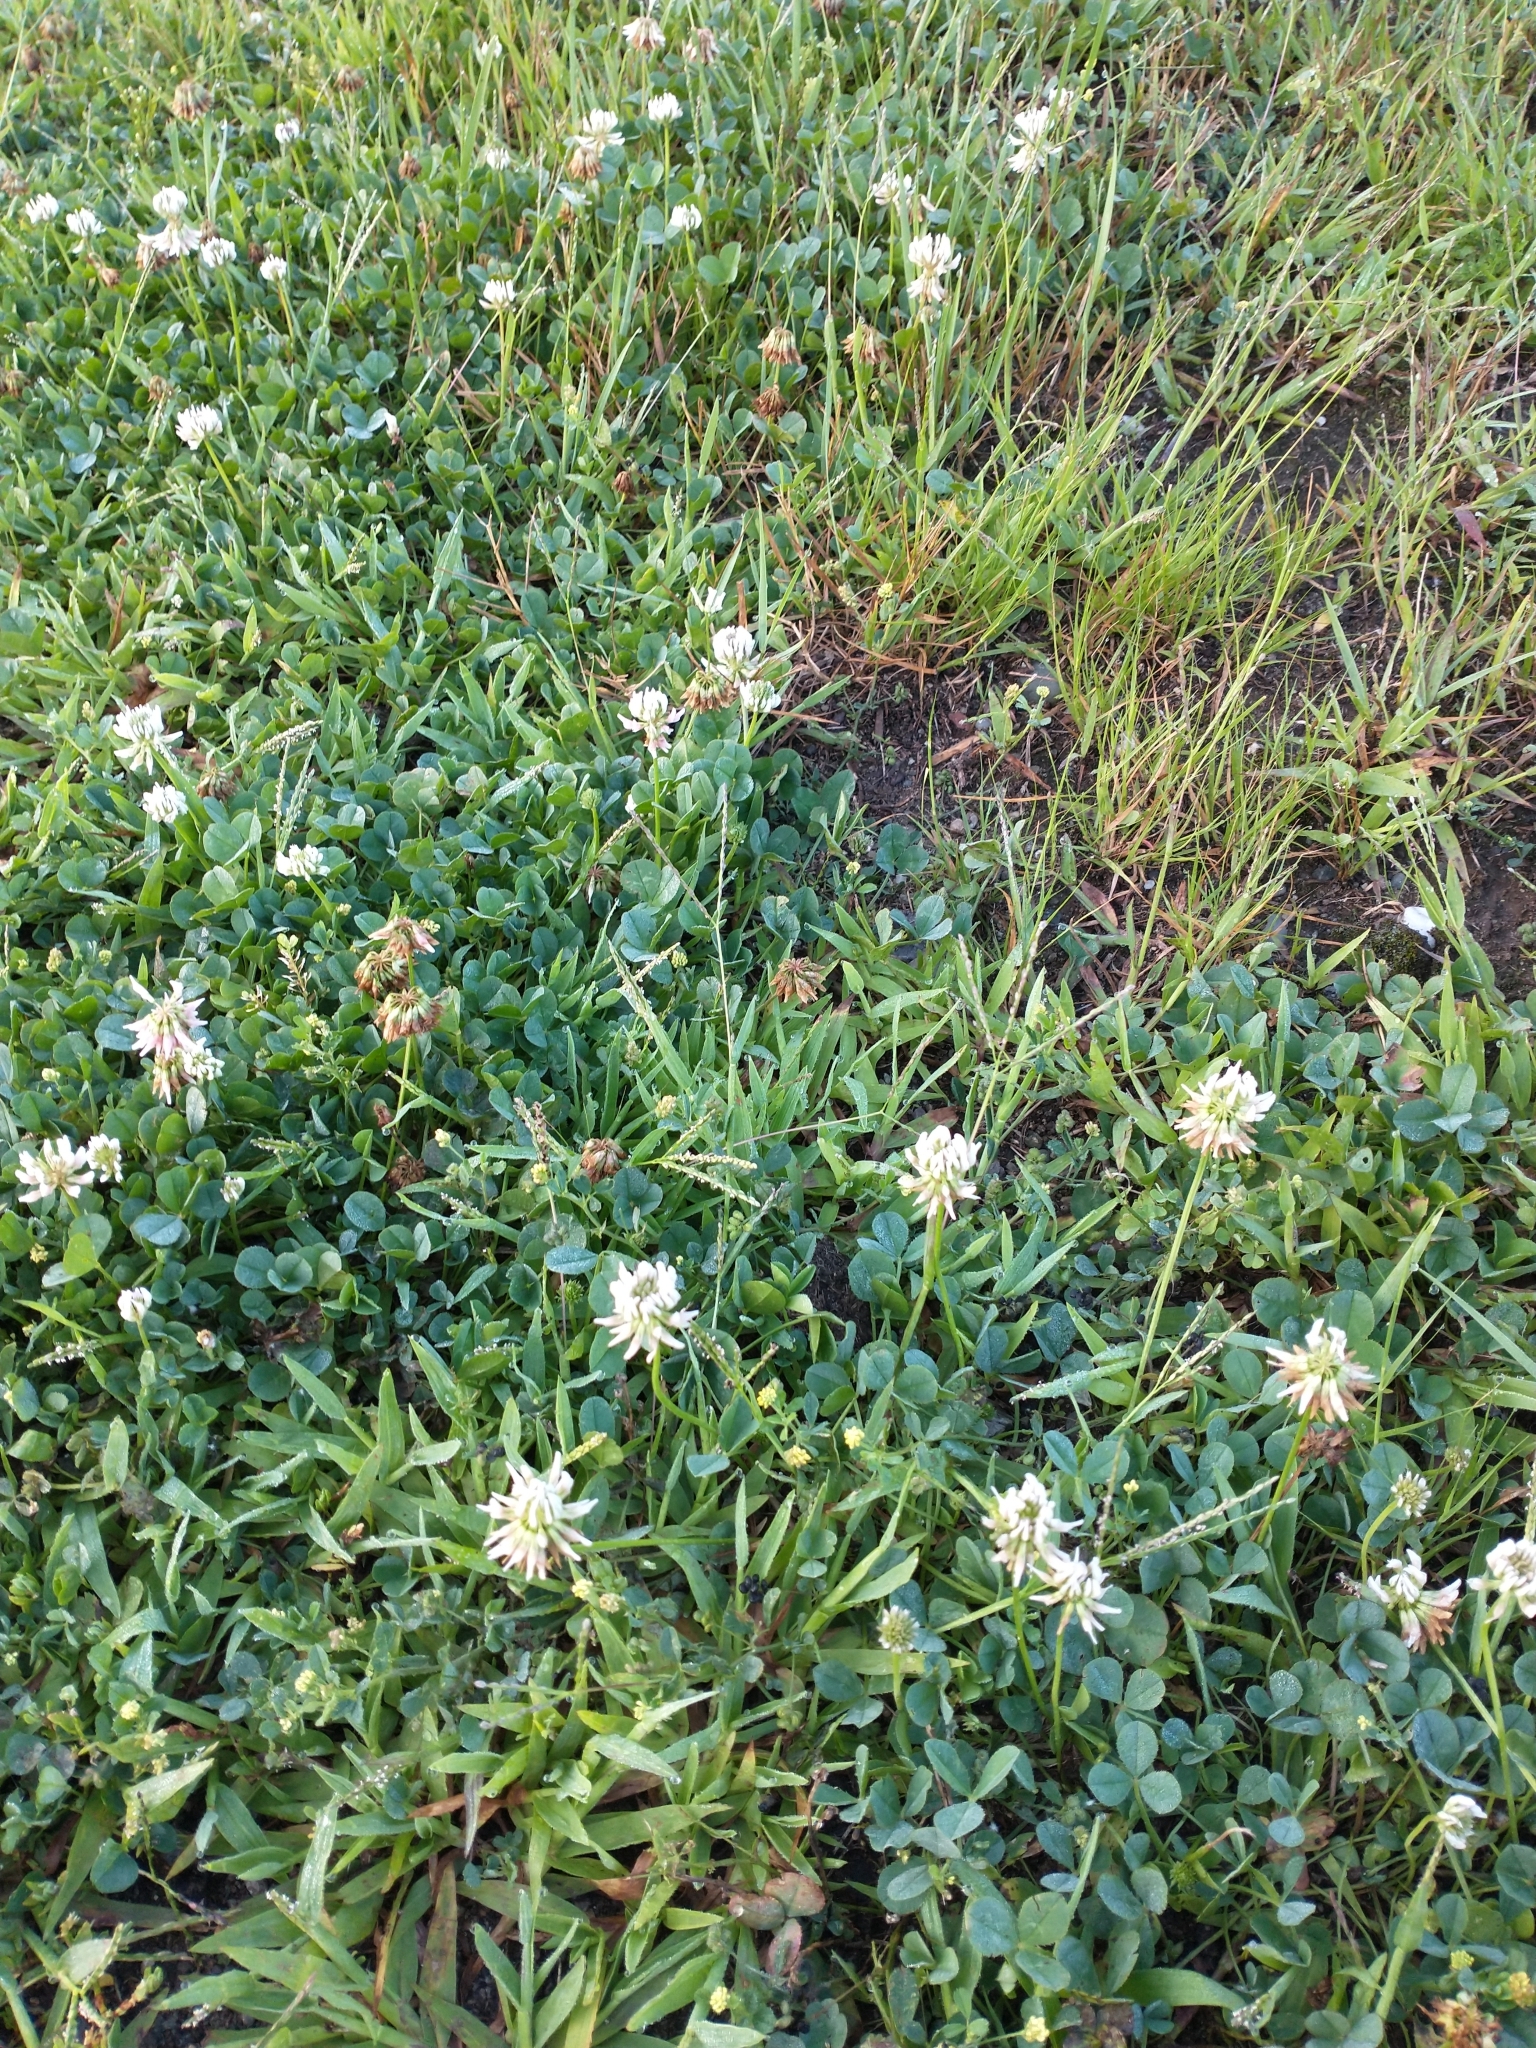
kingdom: Plantae
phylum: Tracheophyta
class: Magnoliopsida
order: Fabales
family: Fabaceae
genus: Trifolium
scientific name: Trifolium repens
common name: White clover
